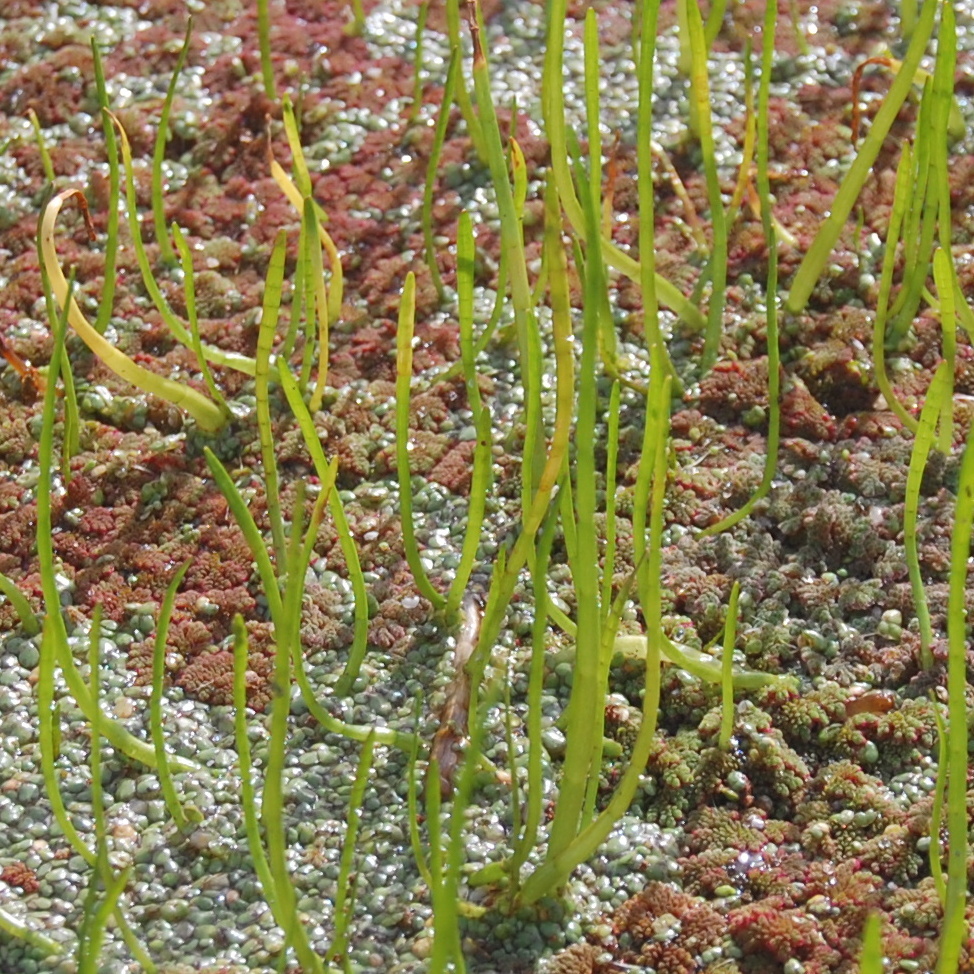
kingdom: Plantae
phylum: Tracheophyta
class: Magnoliopsida
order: Apiales
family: Apiaceae
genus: Lilaeopsis
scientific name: Lilaeopsis minor
